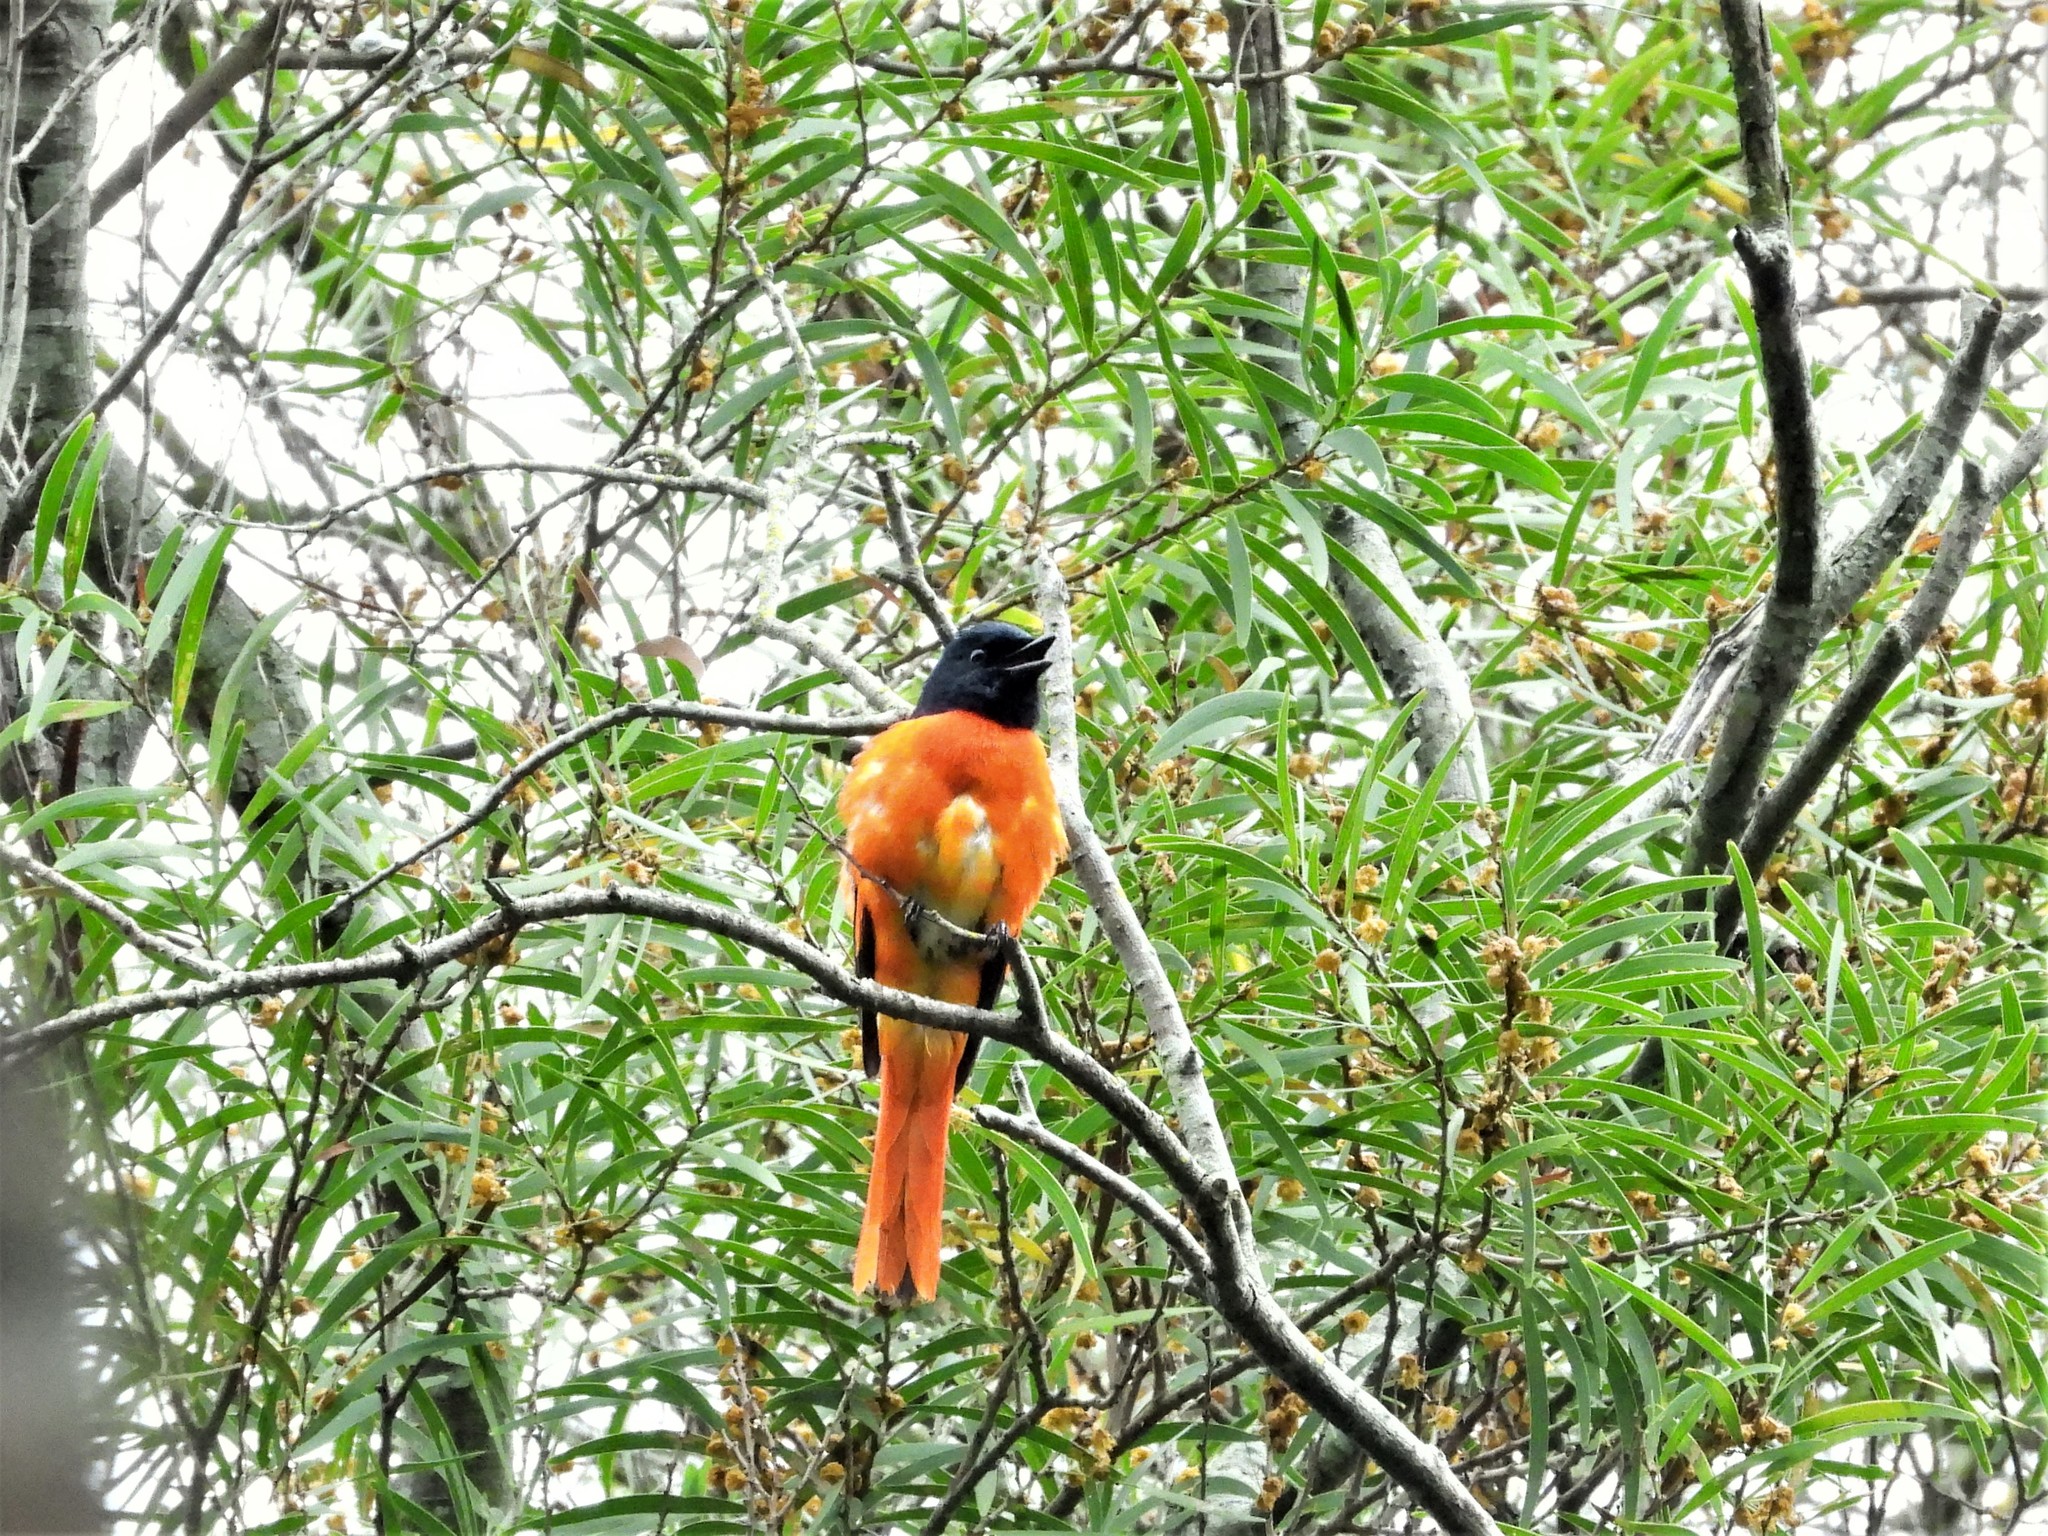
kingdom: Animalia
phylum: Chordata
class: Aves
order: Passeriformes
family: Campephagidae
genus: Pericrocotus
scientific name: Pericrocotus speciosus
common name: Scarlet minivet
